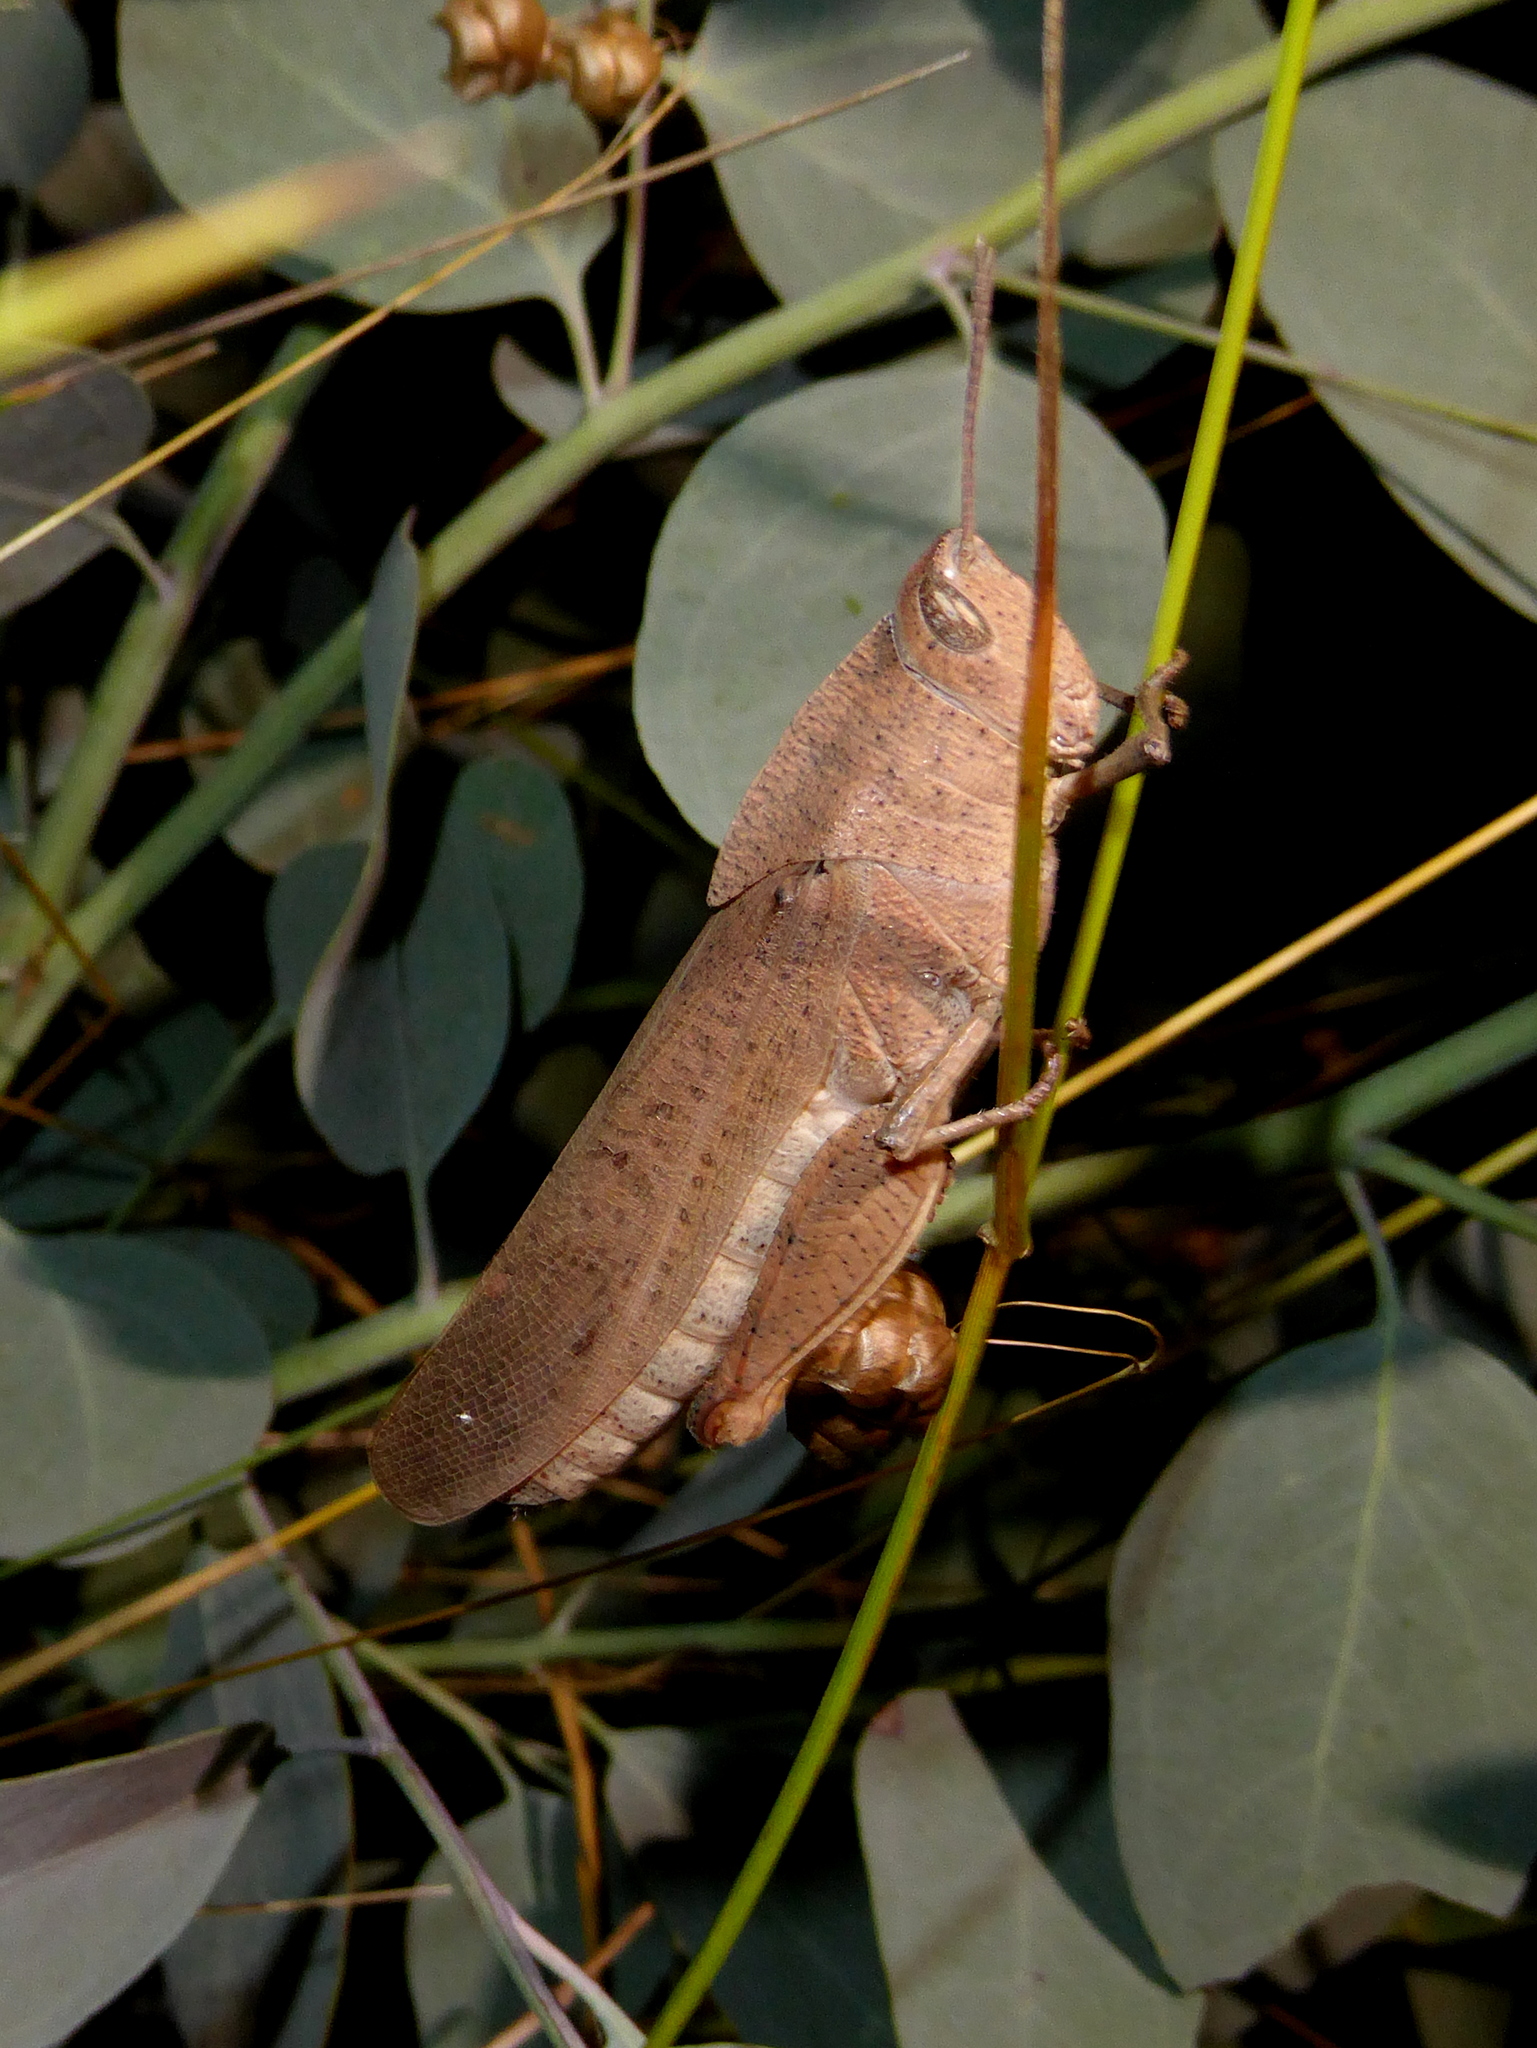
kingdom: Animalia
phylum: Arthropoda
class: Insecta
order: Orthoptera
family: Acrididae
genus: Goniaea
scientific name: Goniaea australasiae
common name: Gumleaf grasshopper
